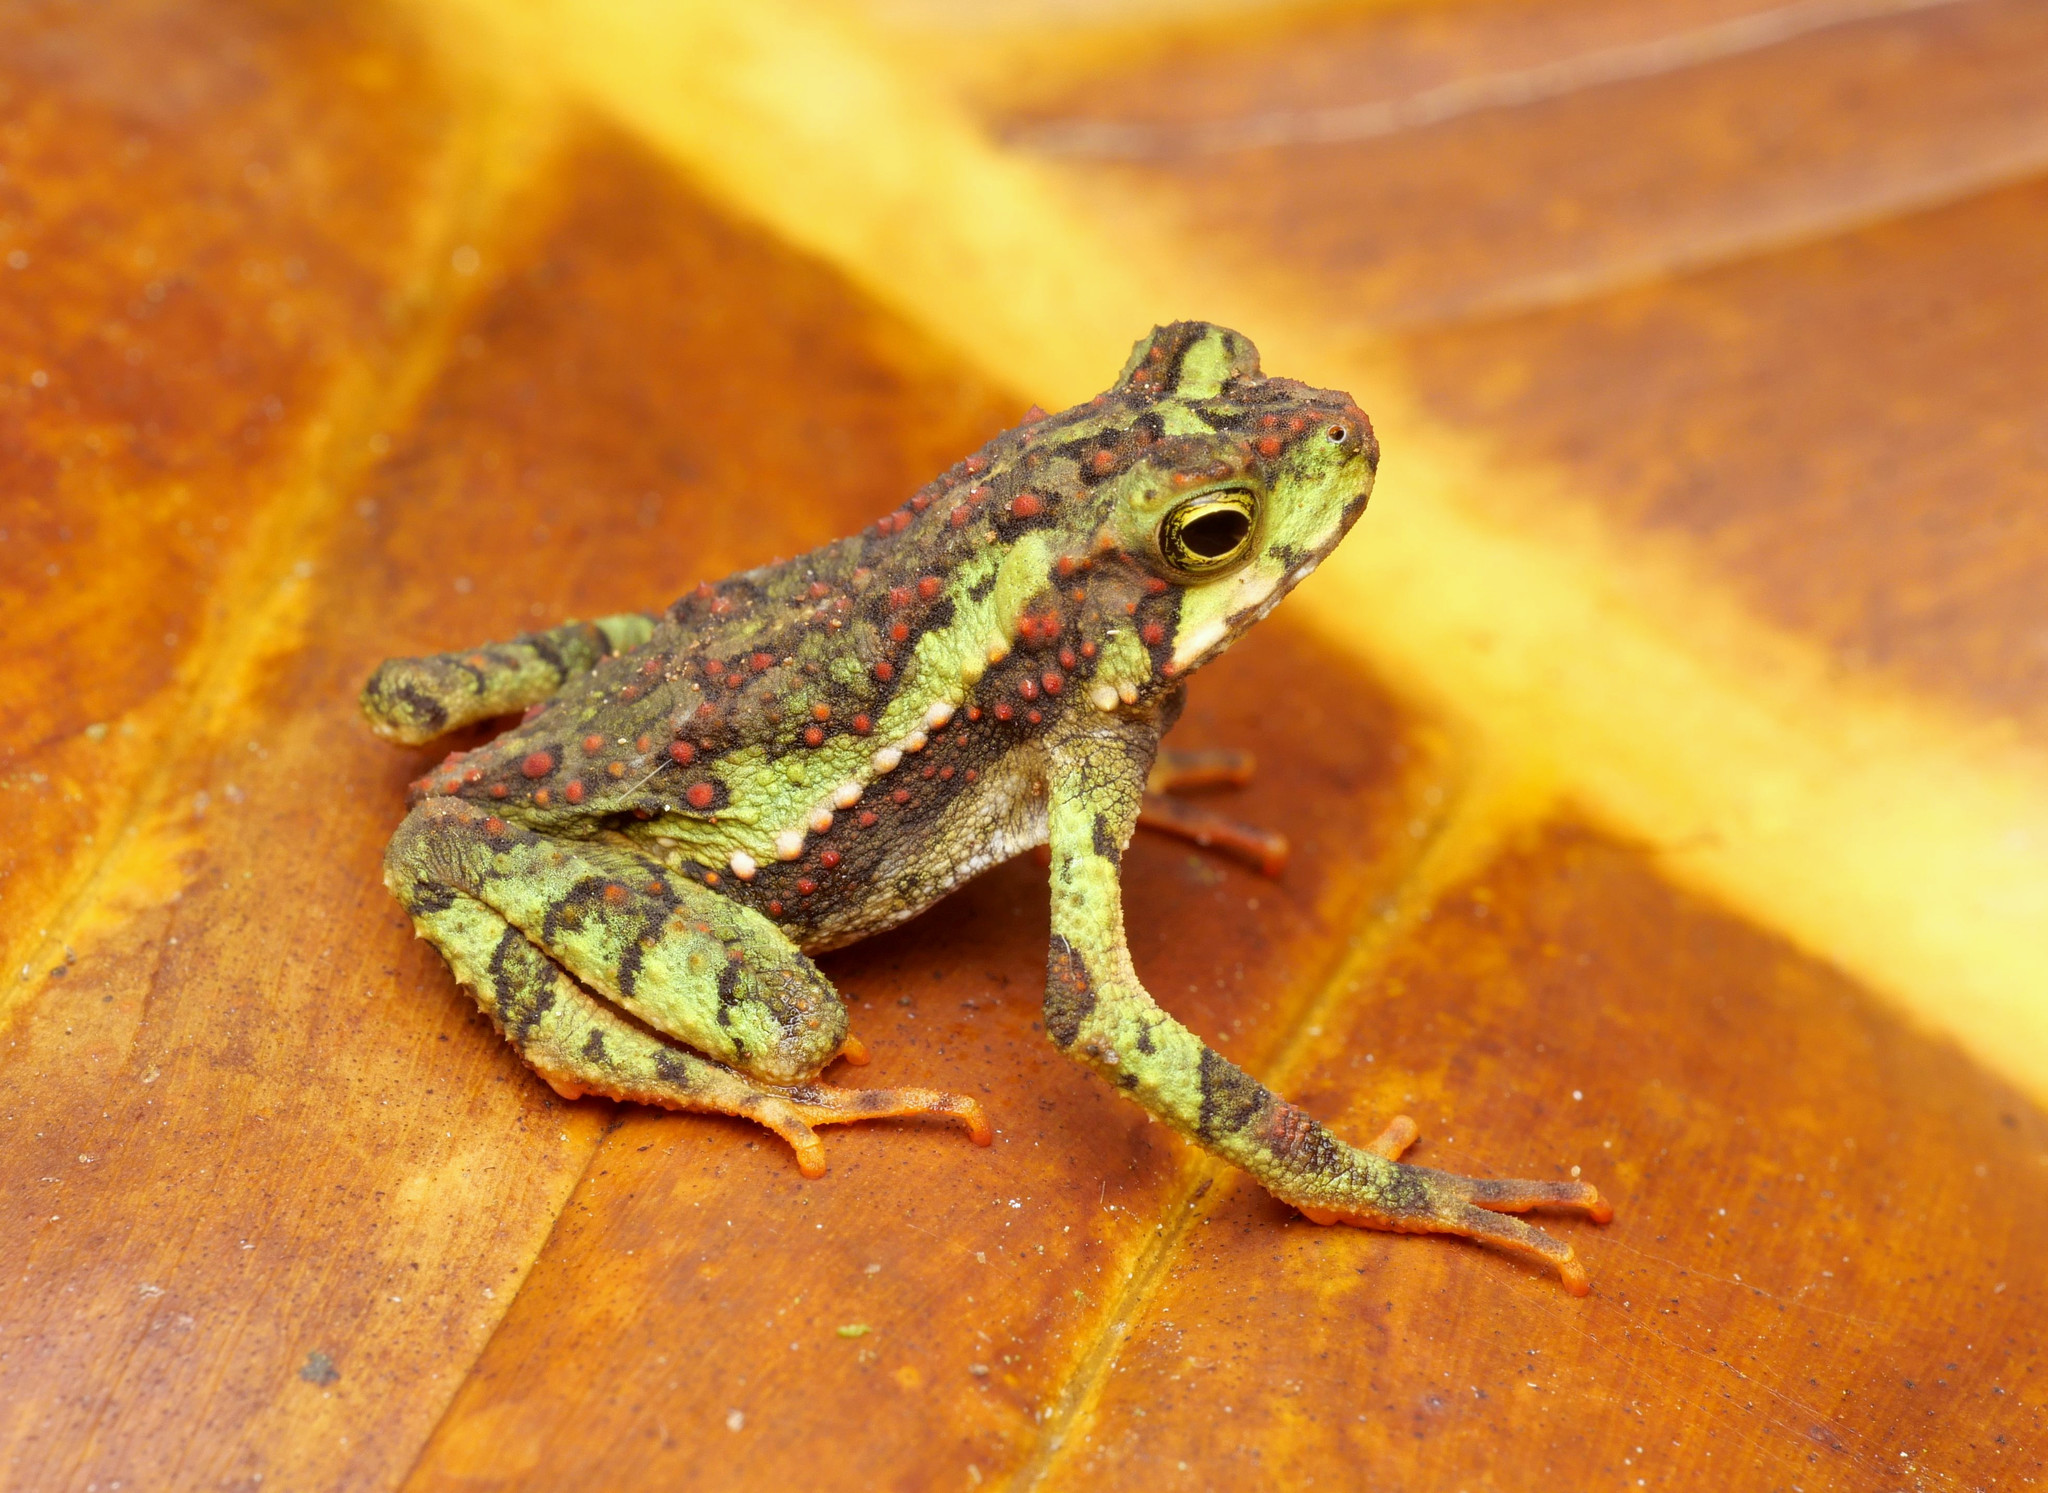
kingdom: Animalia
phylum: Chordata
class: Amphibia
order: Anura
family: Bufonidae
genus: Incilius
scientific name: Incilius coniferus
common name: Evergreen toad
